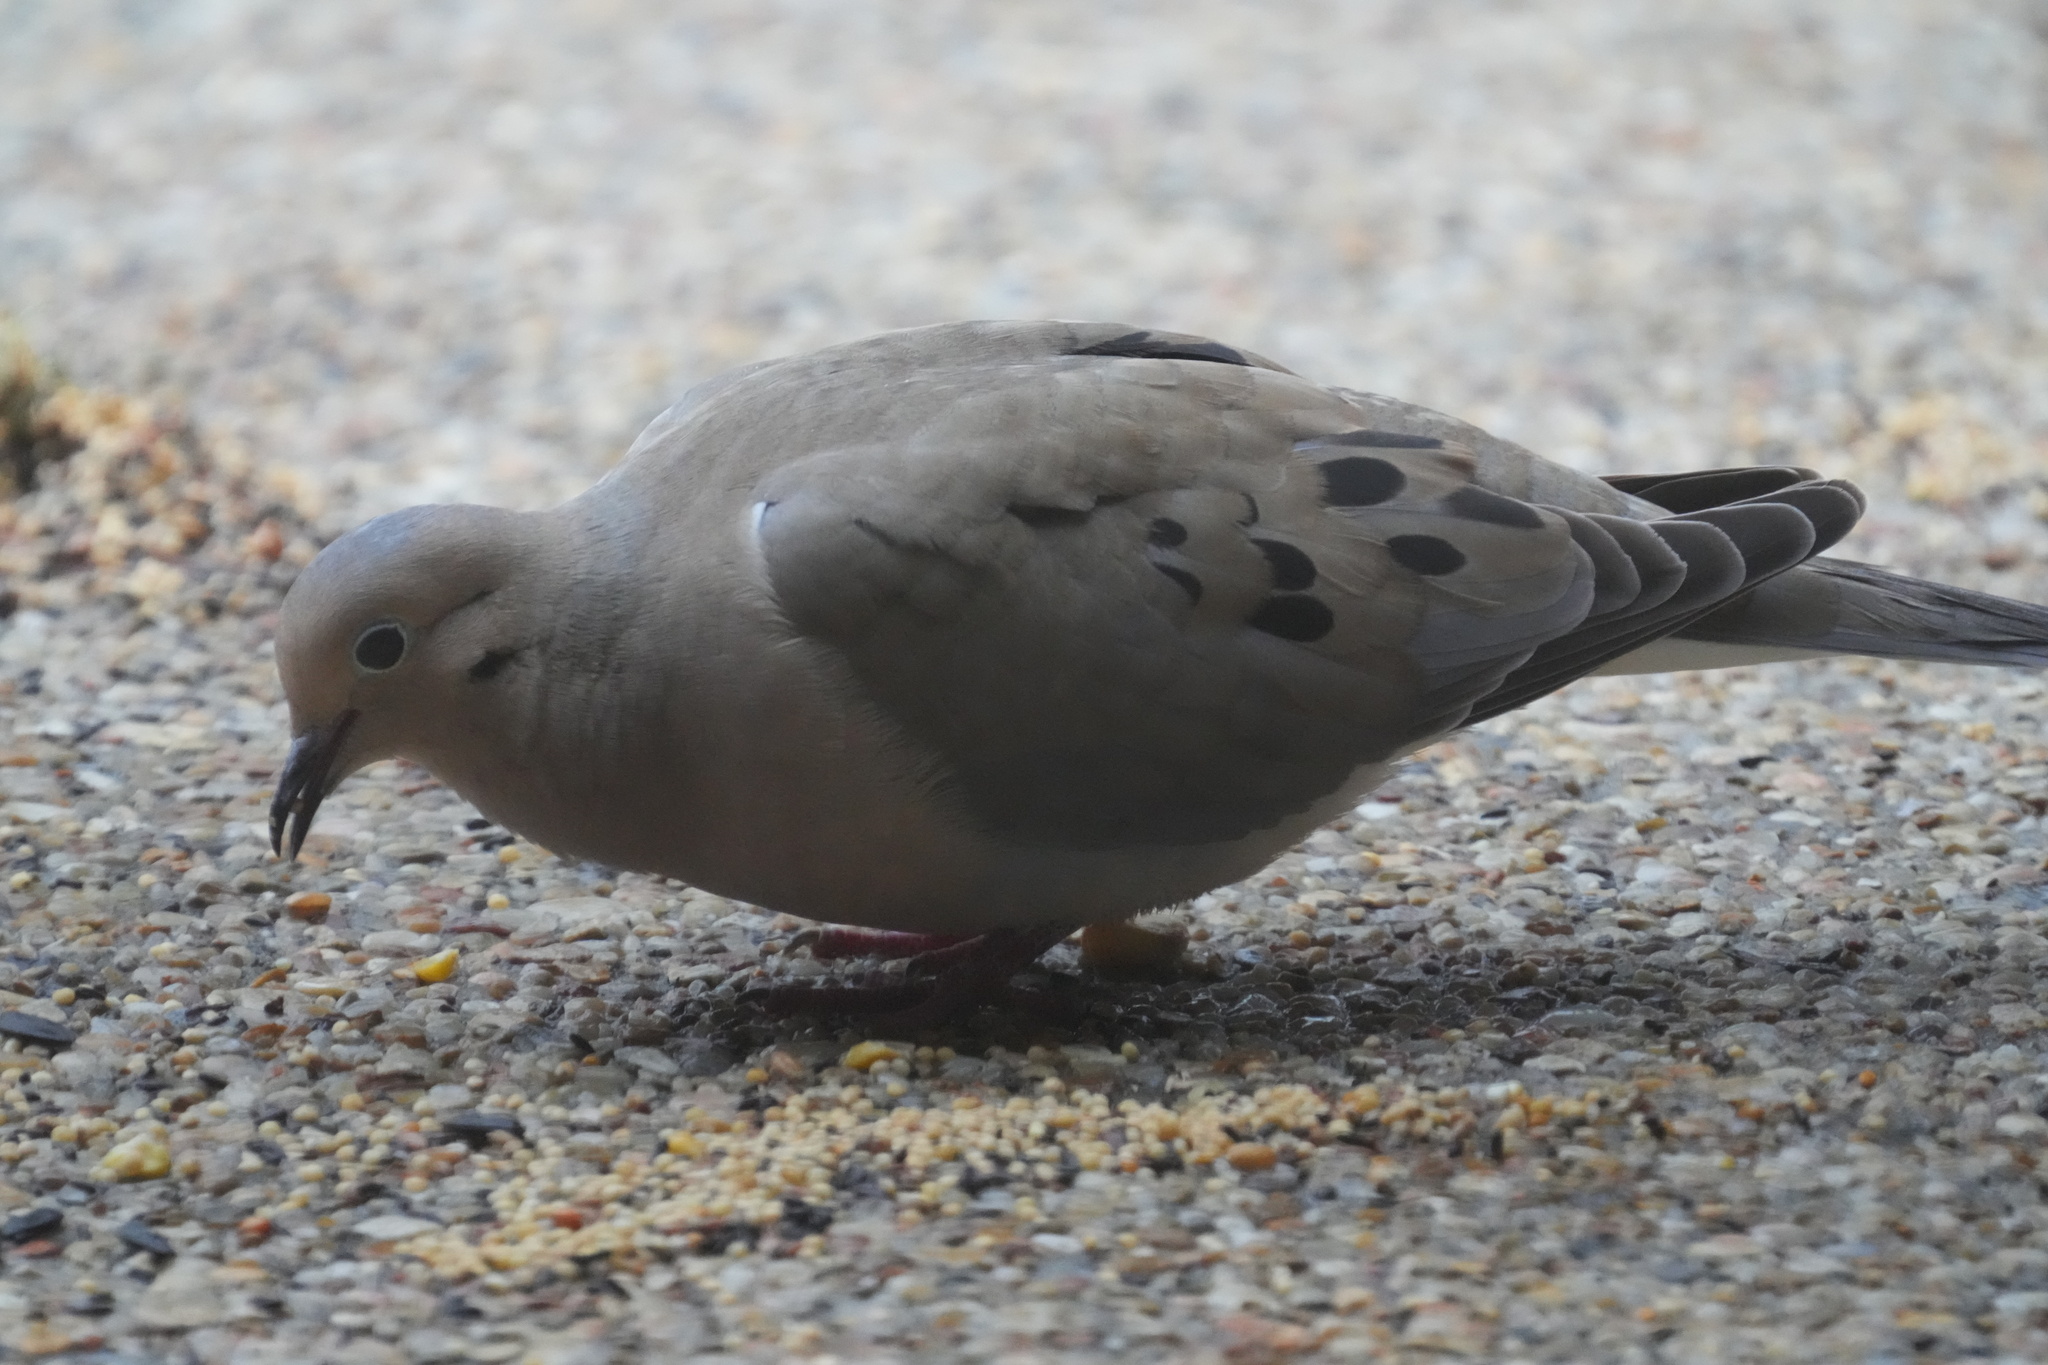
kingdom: Animalia
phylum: Chordata
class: Aves
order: Columbiformes
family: Columbidae
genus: Zenaida
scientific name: Zenaida macroura
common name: Mourning dove
